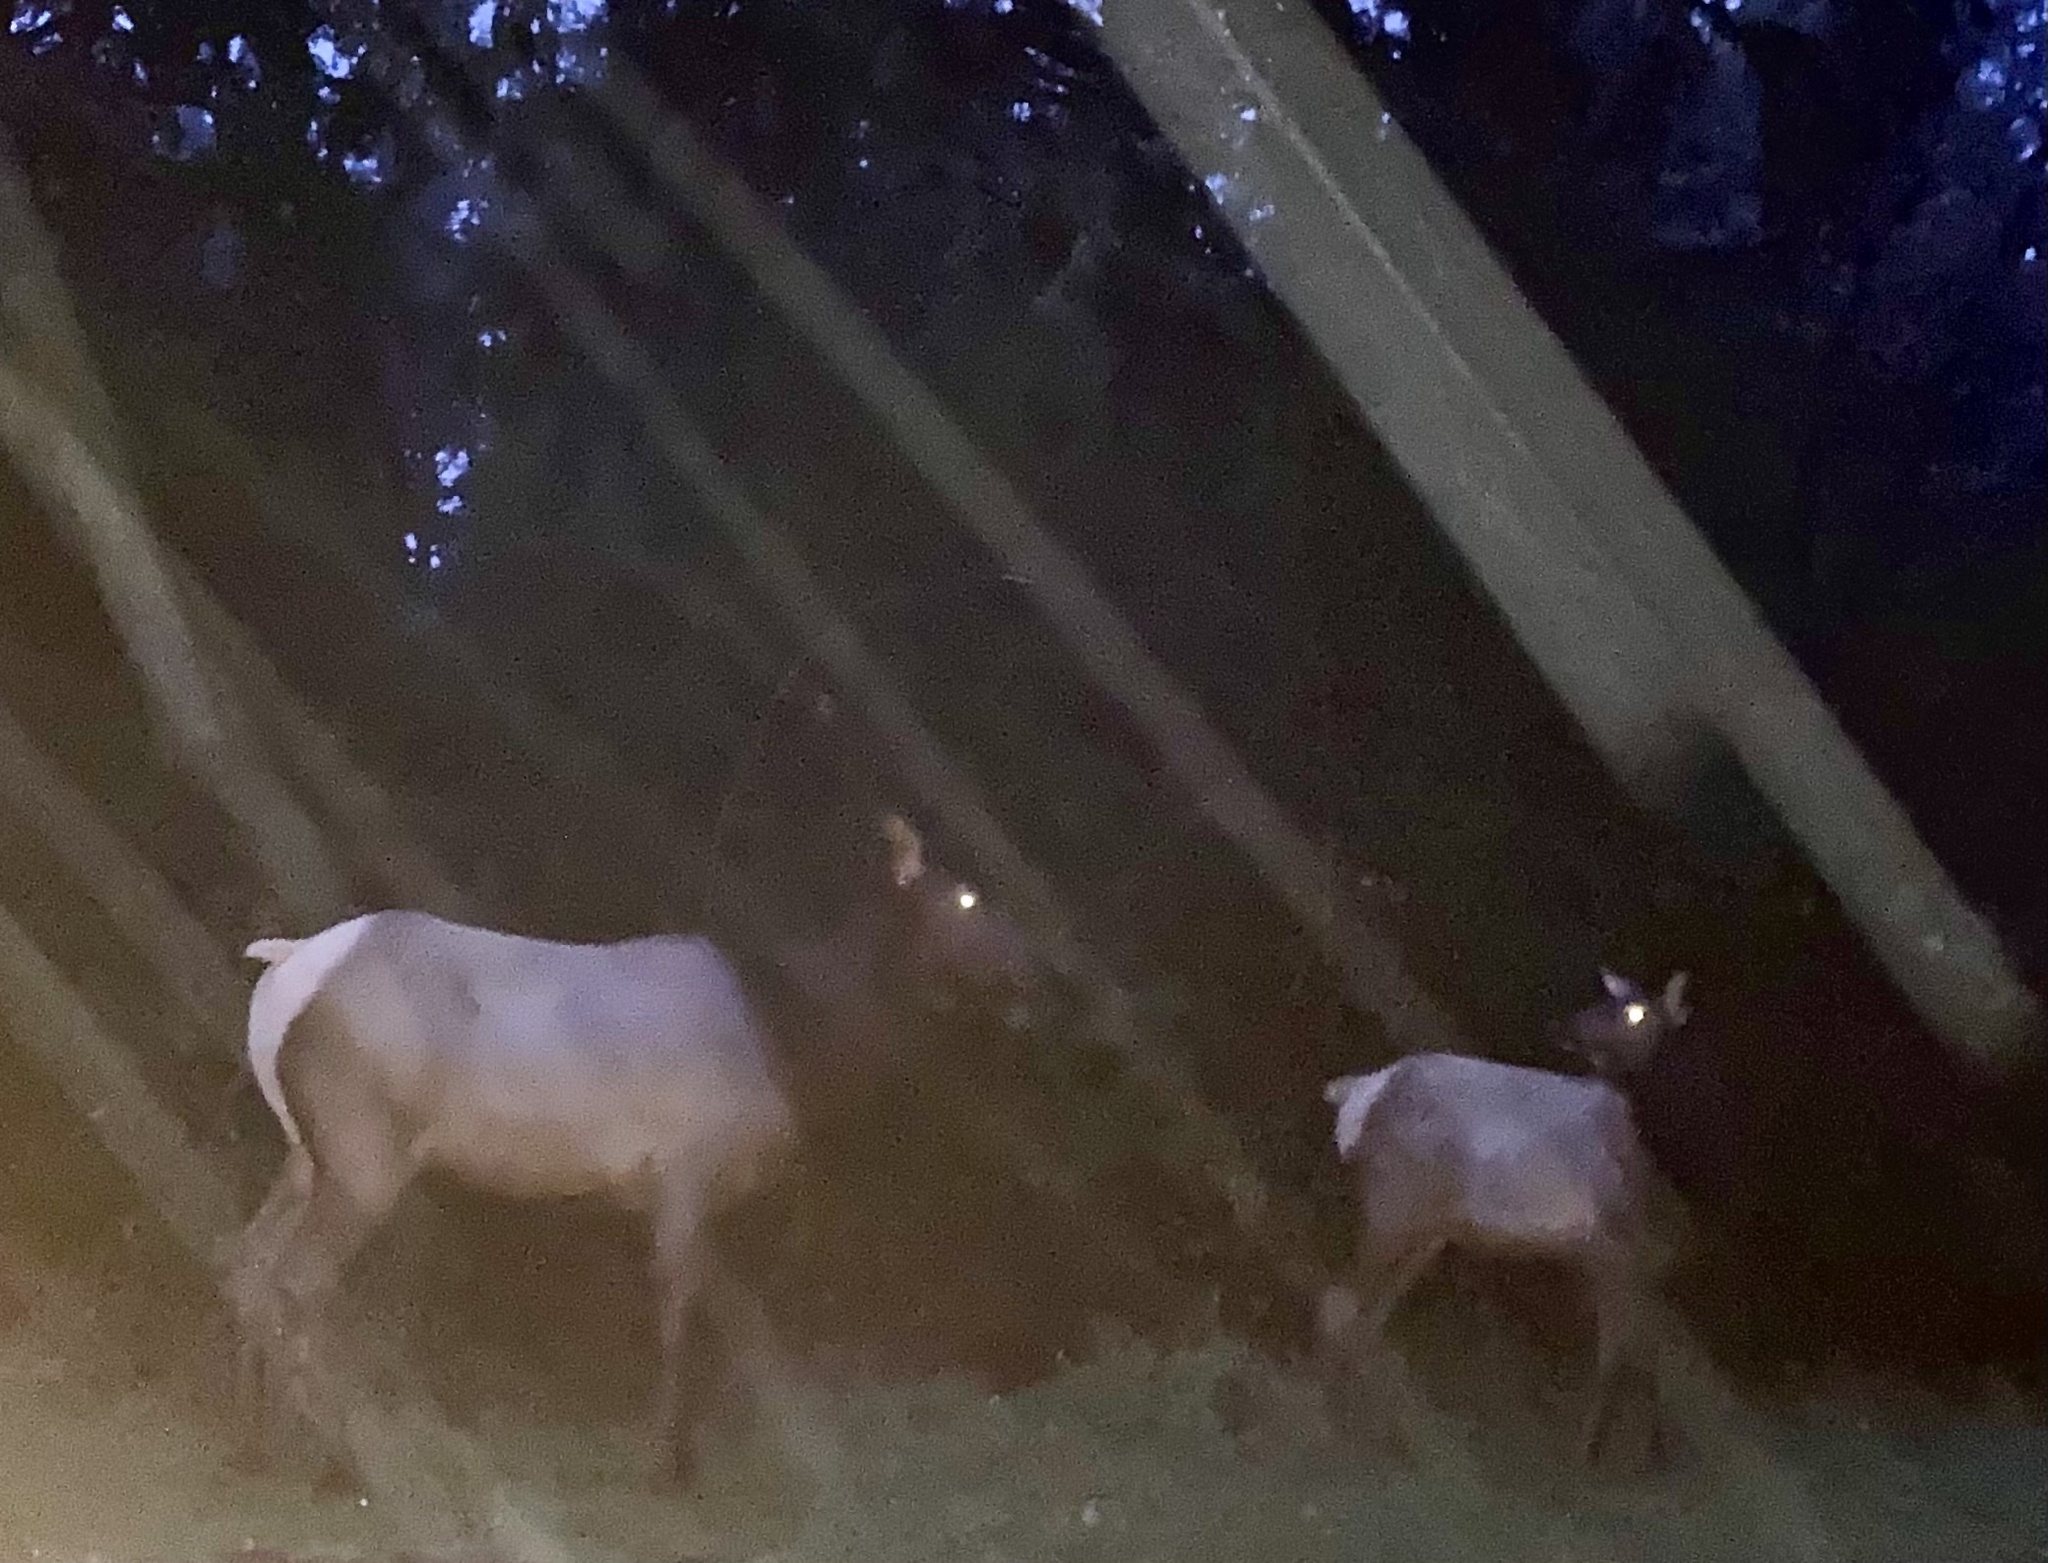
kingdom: Animalia
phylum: Chordata
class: Mammalia
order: Artiodactyla
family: Cervidae
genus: Cervus
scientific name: Cervus elaphus
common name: Red deer
